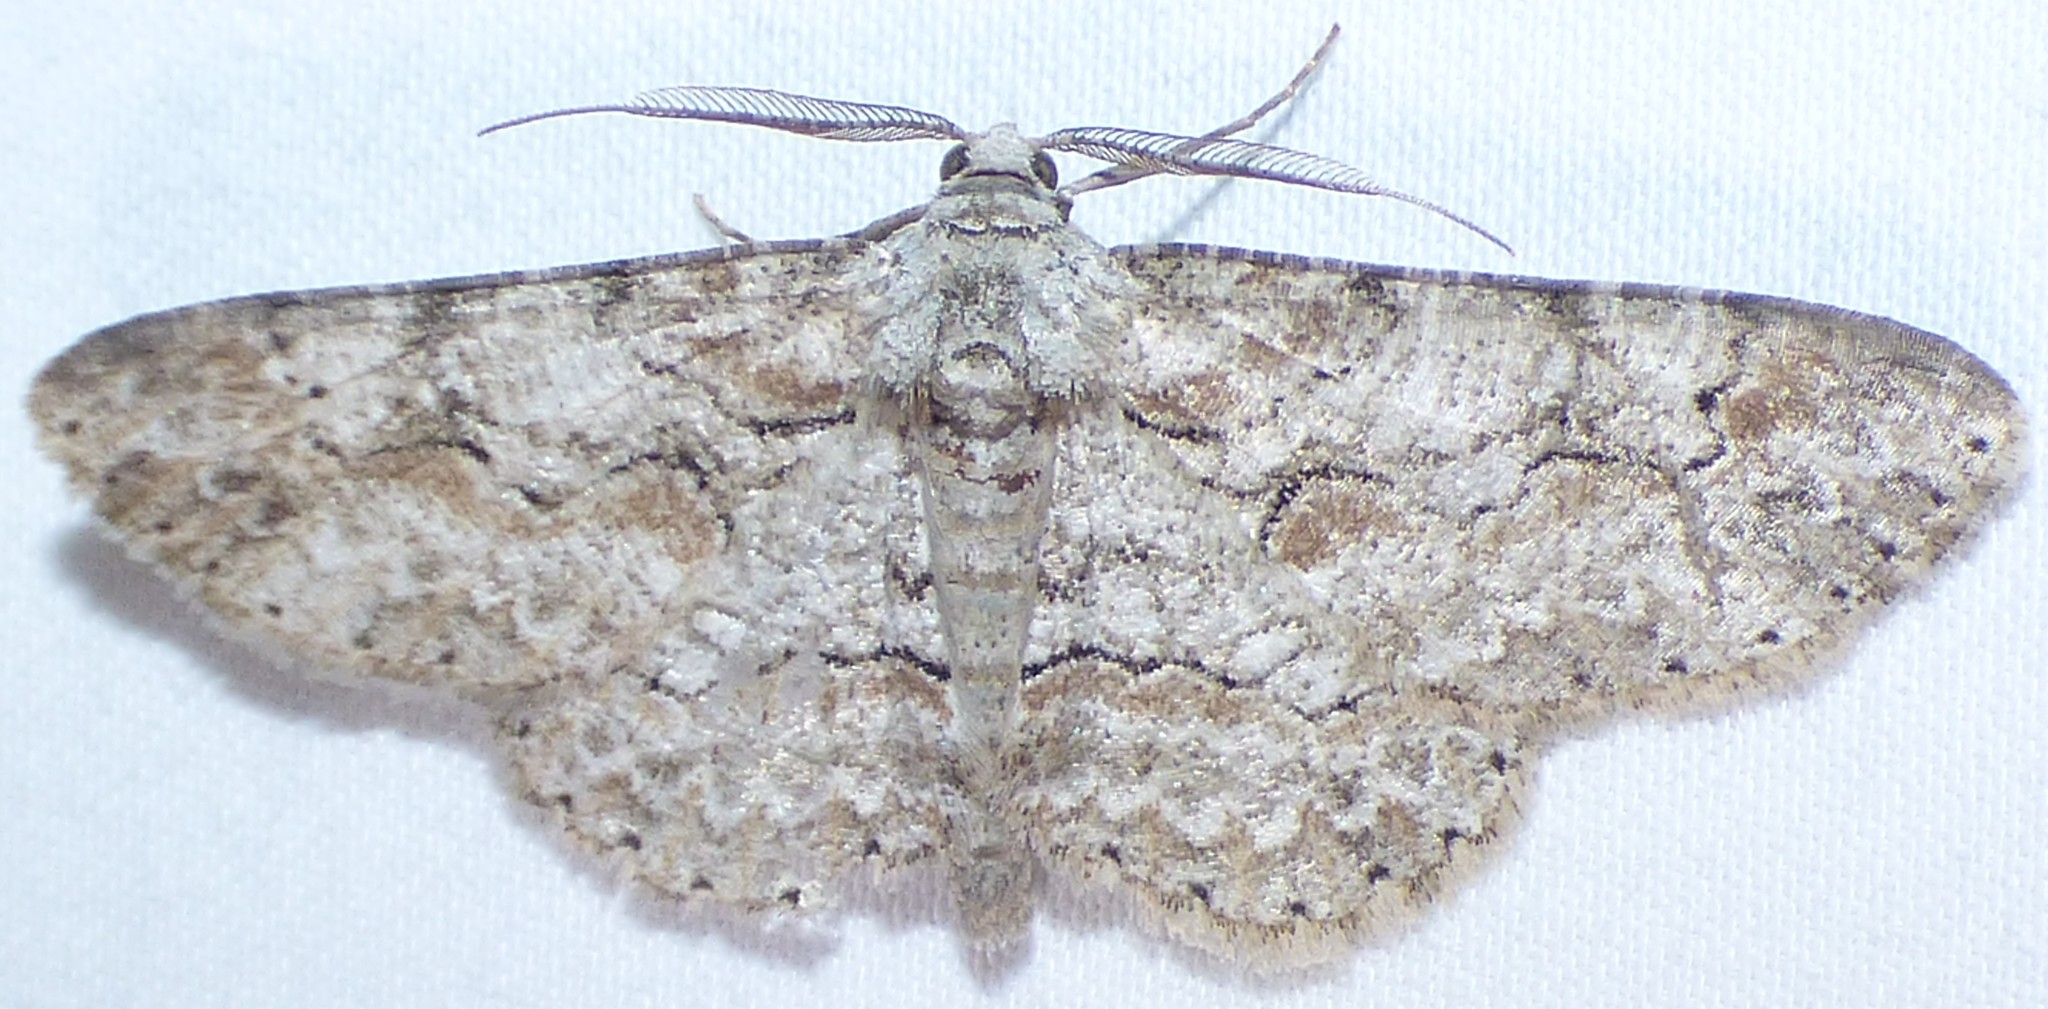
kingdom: Animalia
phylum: Arthropoda
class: Insecta
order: Lepidoptera
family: Geometridae
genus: Iridopsis
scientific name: Iridopsis defectaria
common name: Brown-shaded gray
